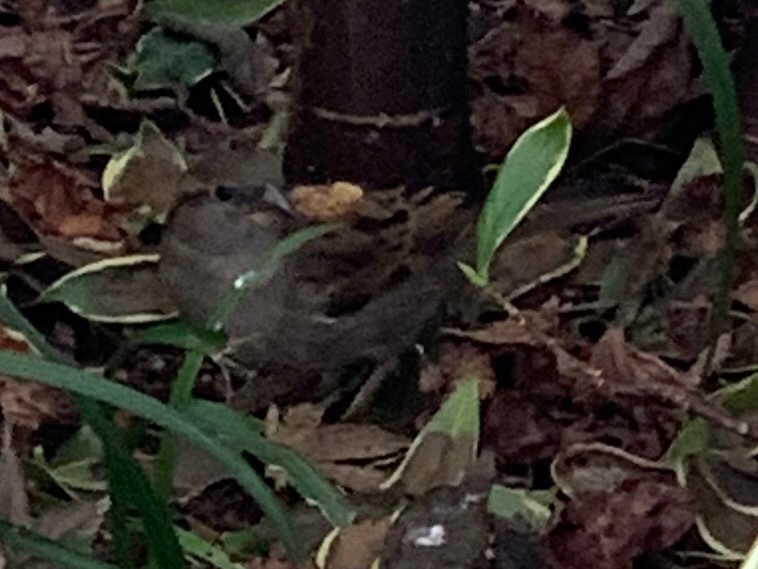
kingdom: Animalia
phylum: Chordata
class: Aves
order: Passeriformes
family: Passeridae
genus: Passer
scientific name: Passer domesticus
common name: House sparrow
